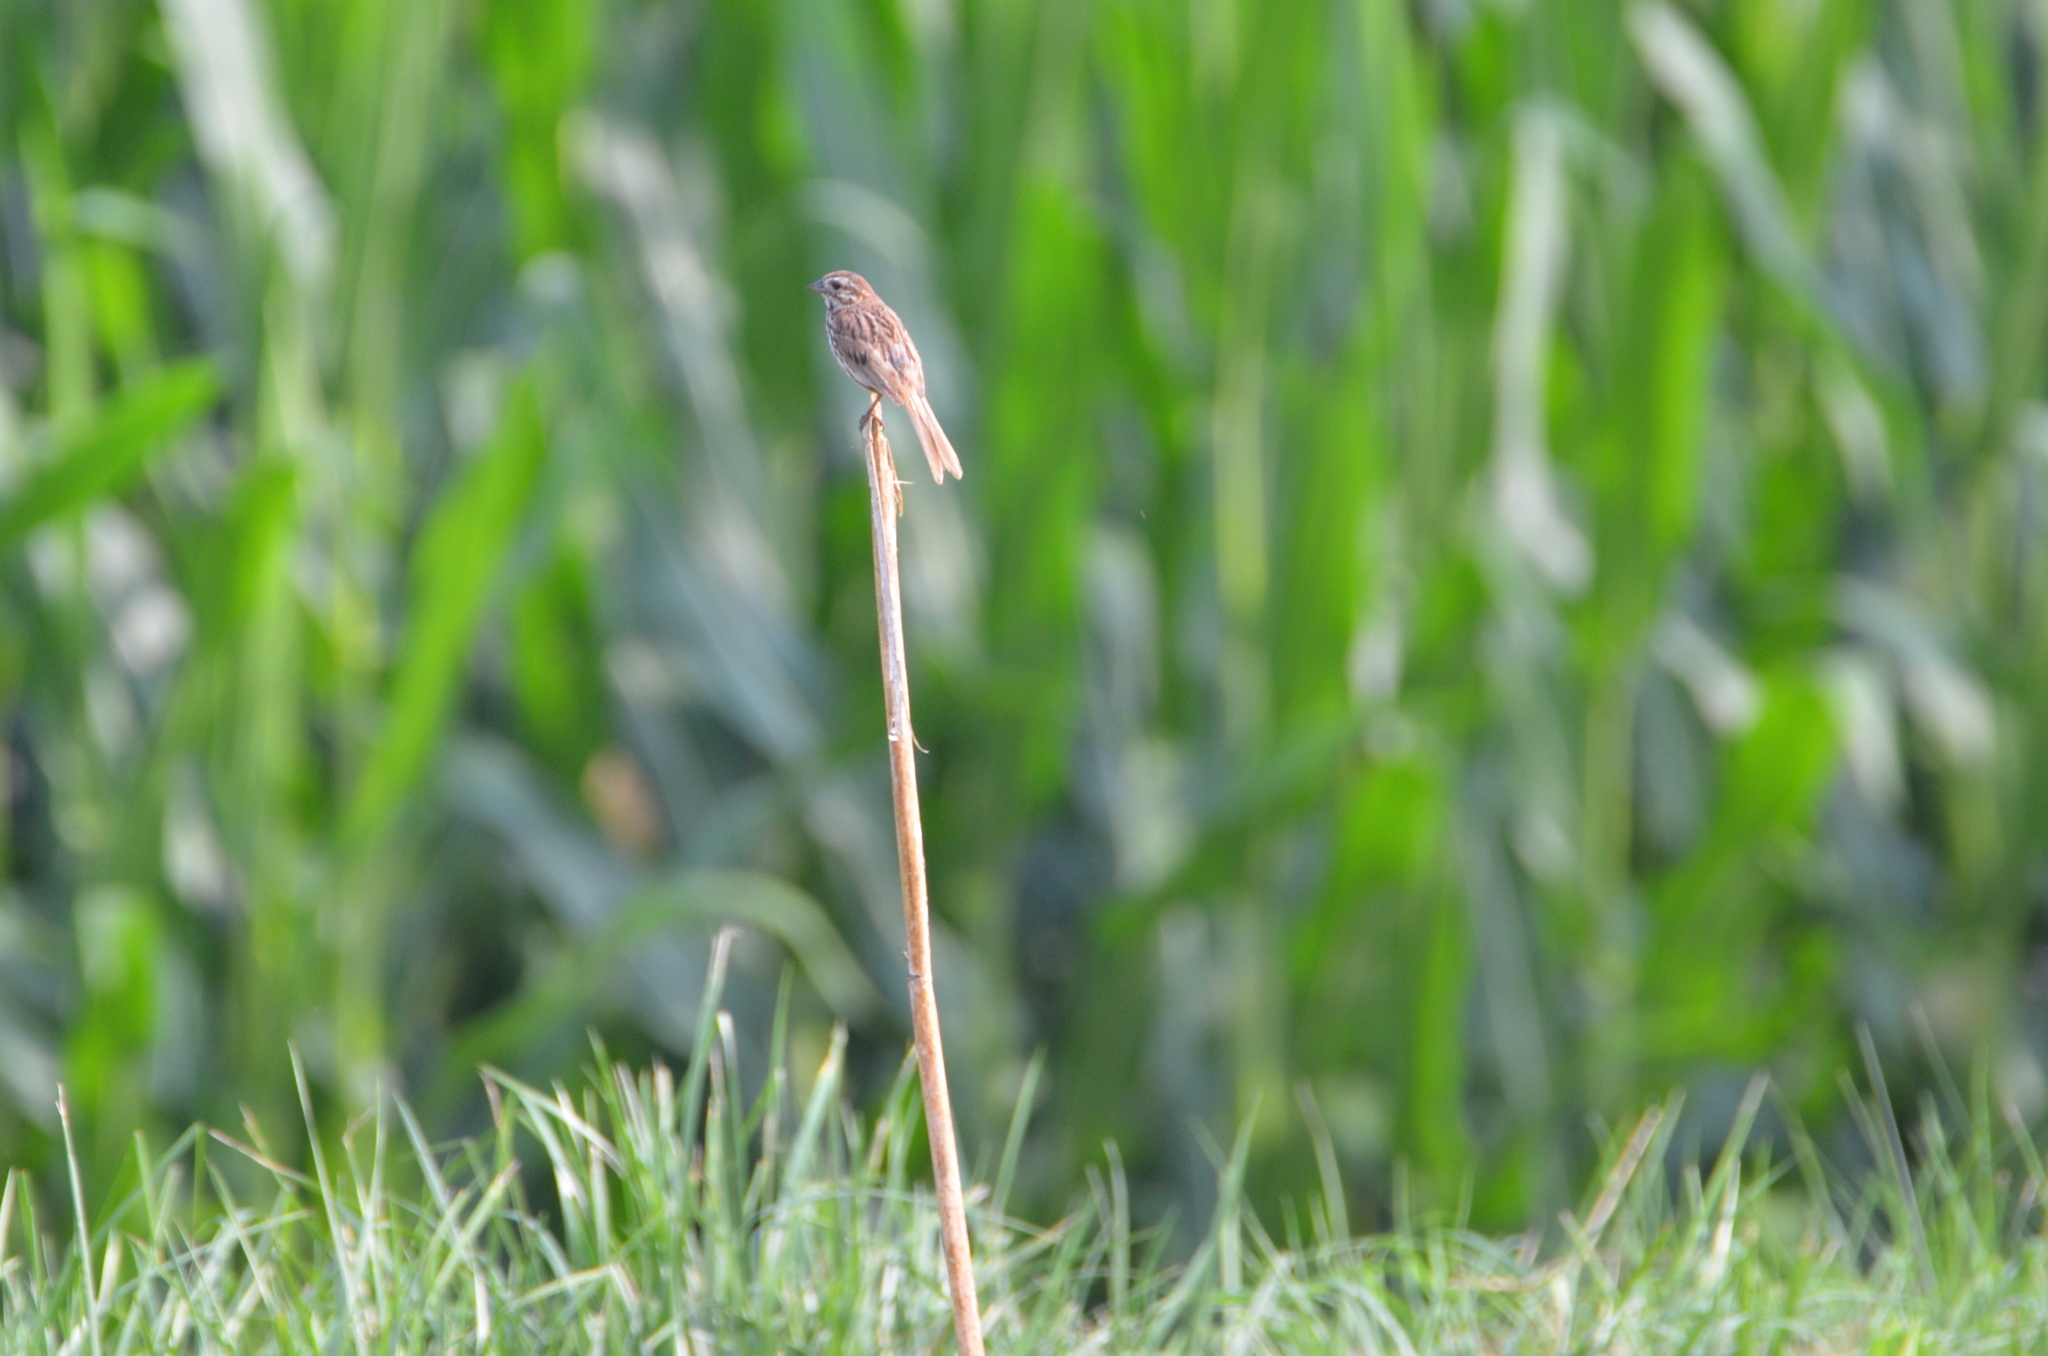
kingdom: Animalia
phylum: Chordata
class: Aves
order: Passeriformes
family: Passerellidae
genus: Melospiza
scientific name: Melospiza melodia
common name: Song sparrow
